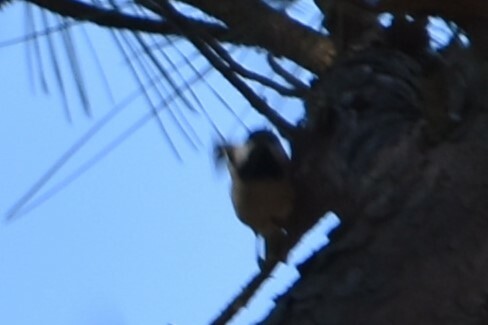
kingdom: Animalia
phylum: Chordata
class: Aves
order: Passeriformes
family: Paridae
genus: Poecile
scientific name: Poecile carolinensis
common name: Carolina chickadee
